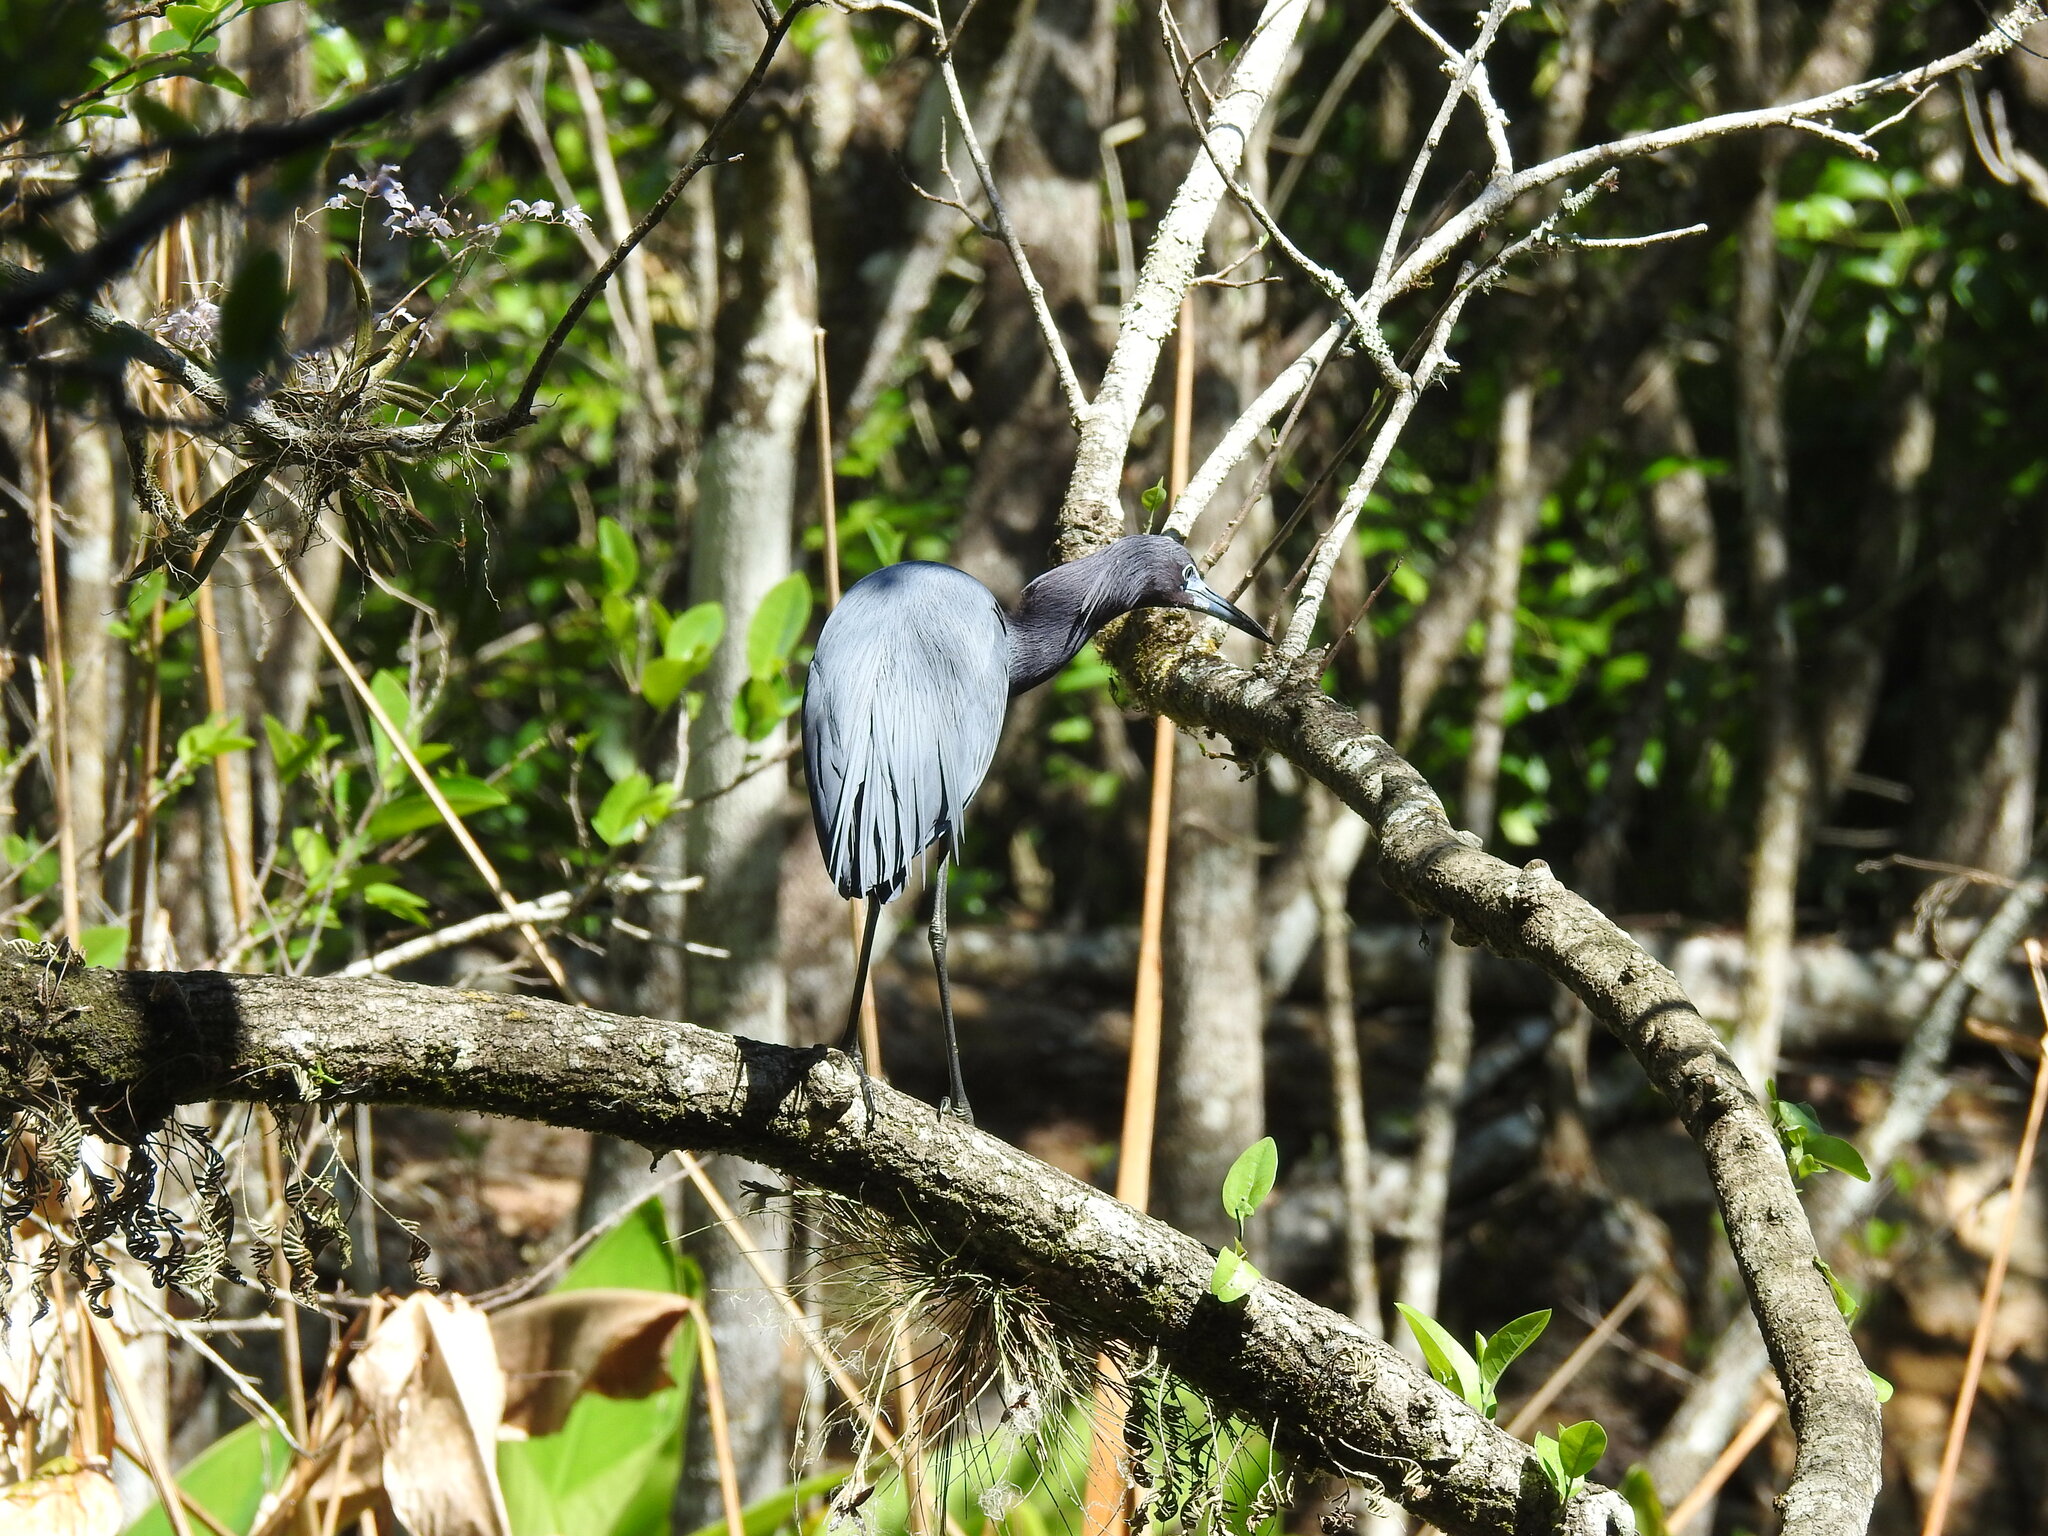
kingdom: Animalia
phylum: Chordata
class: Aves
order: Pelecaniformes
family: Ardeidae
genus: Egretta
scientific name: Egretta caerulea
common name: Little blue heron
